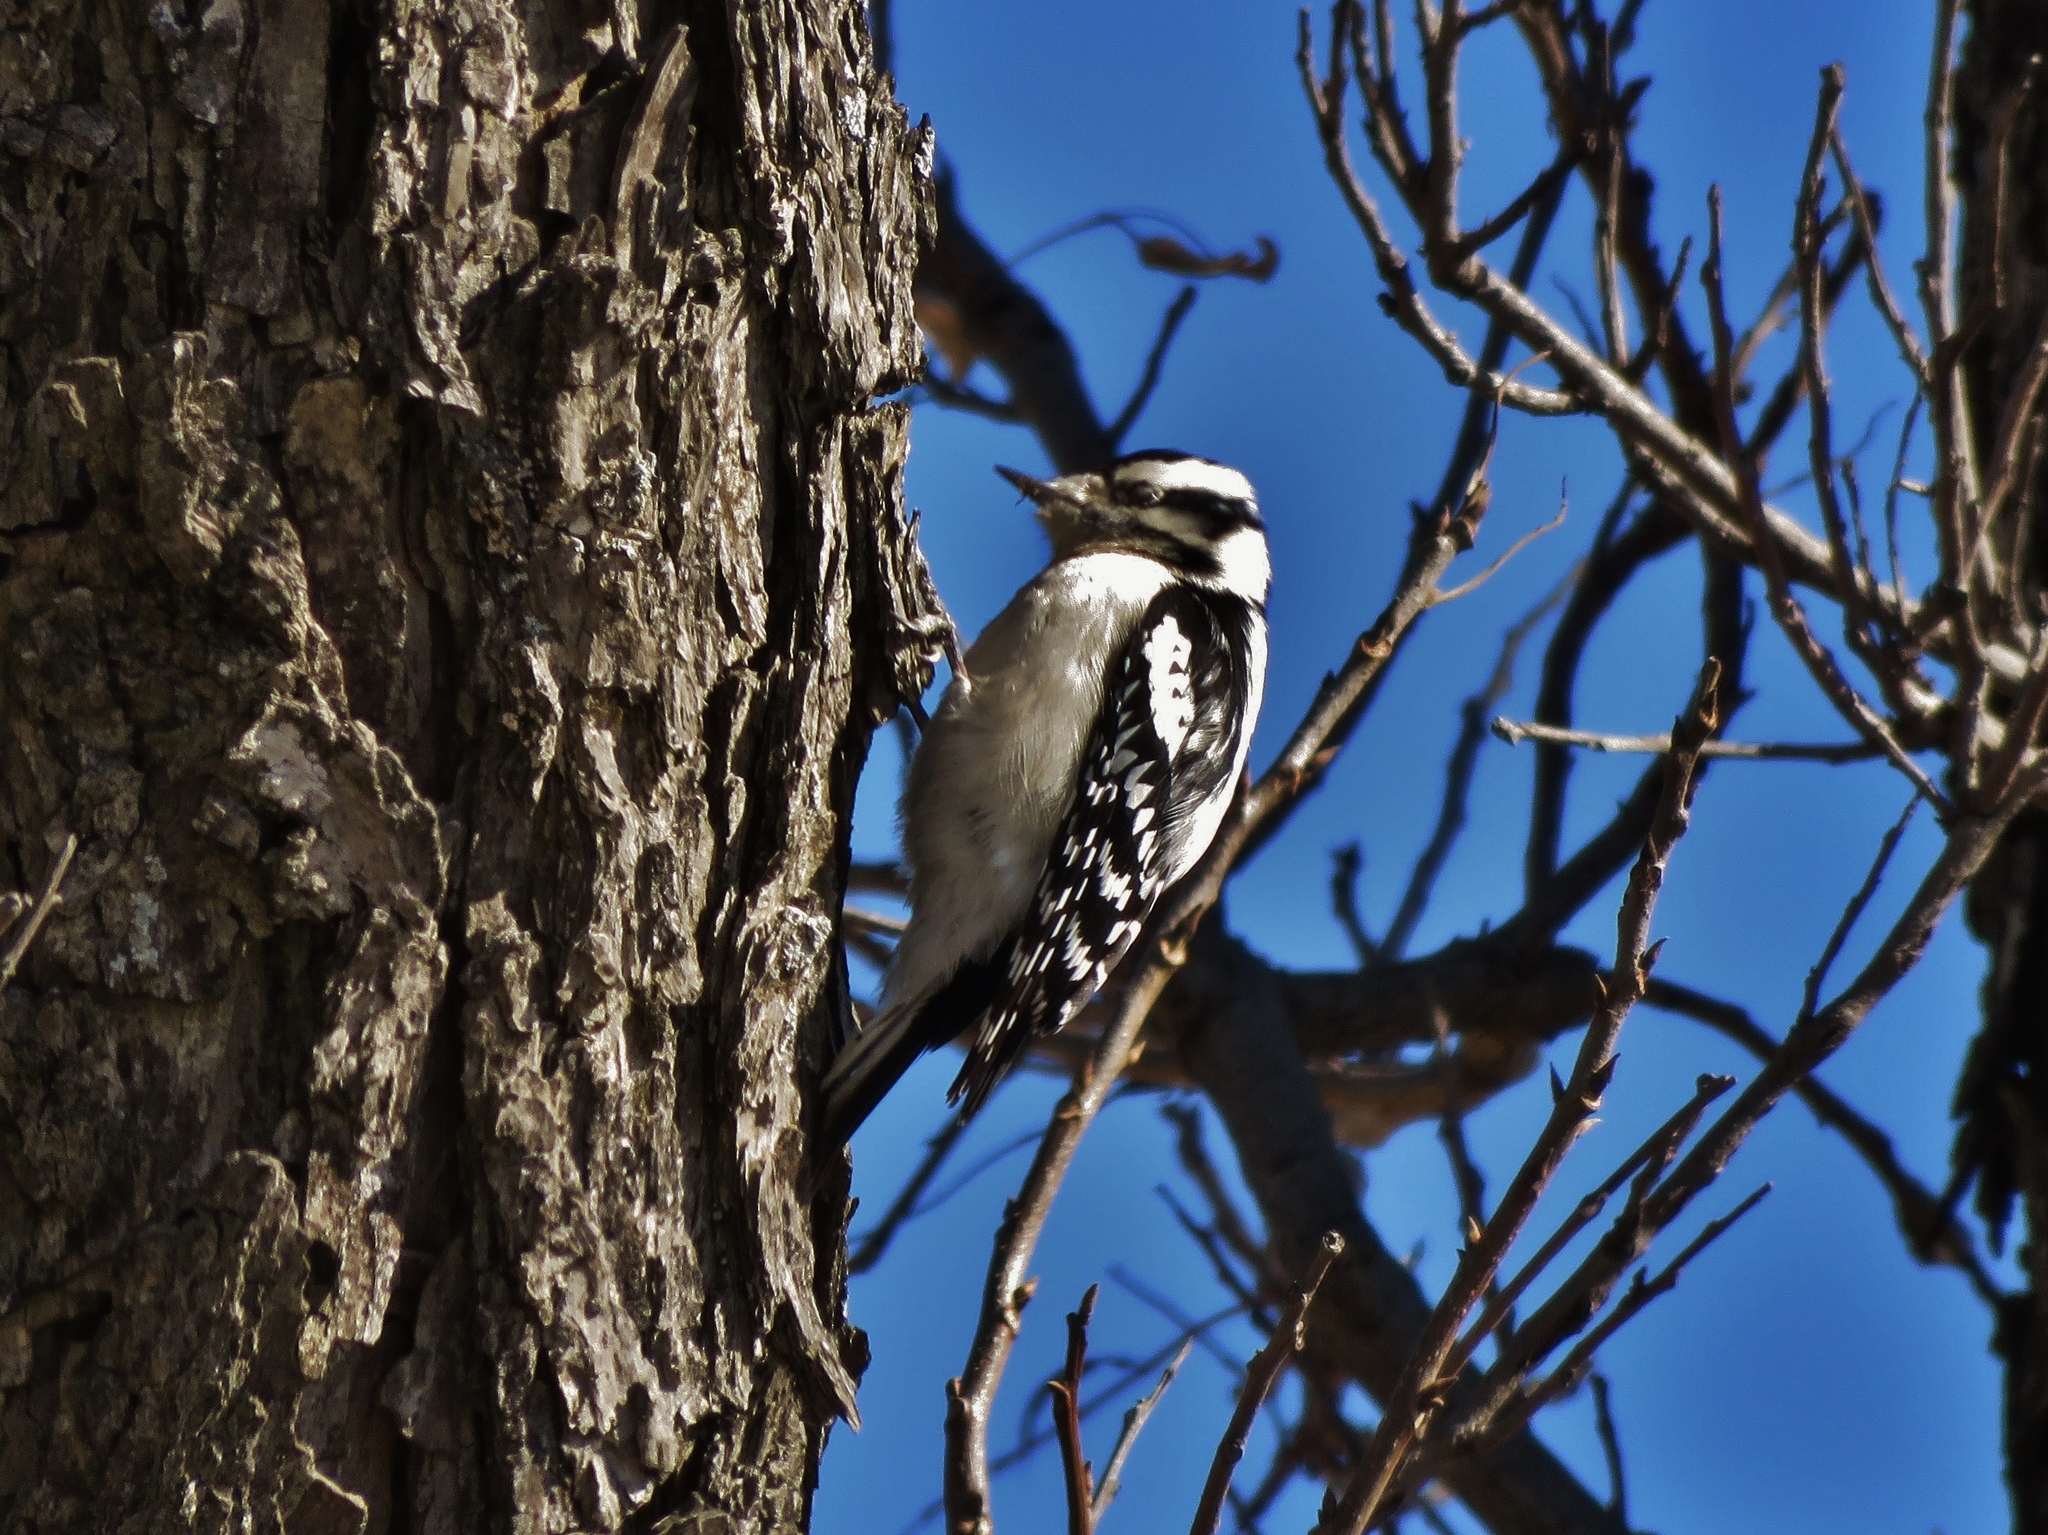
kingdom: Animalia
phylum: Chordata
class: Aves
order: Piciformes
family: Picidae
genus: Dryobates
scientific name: Dryobates pubescens
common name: Downy woodpecker
